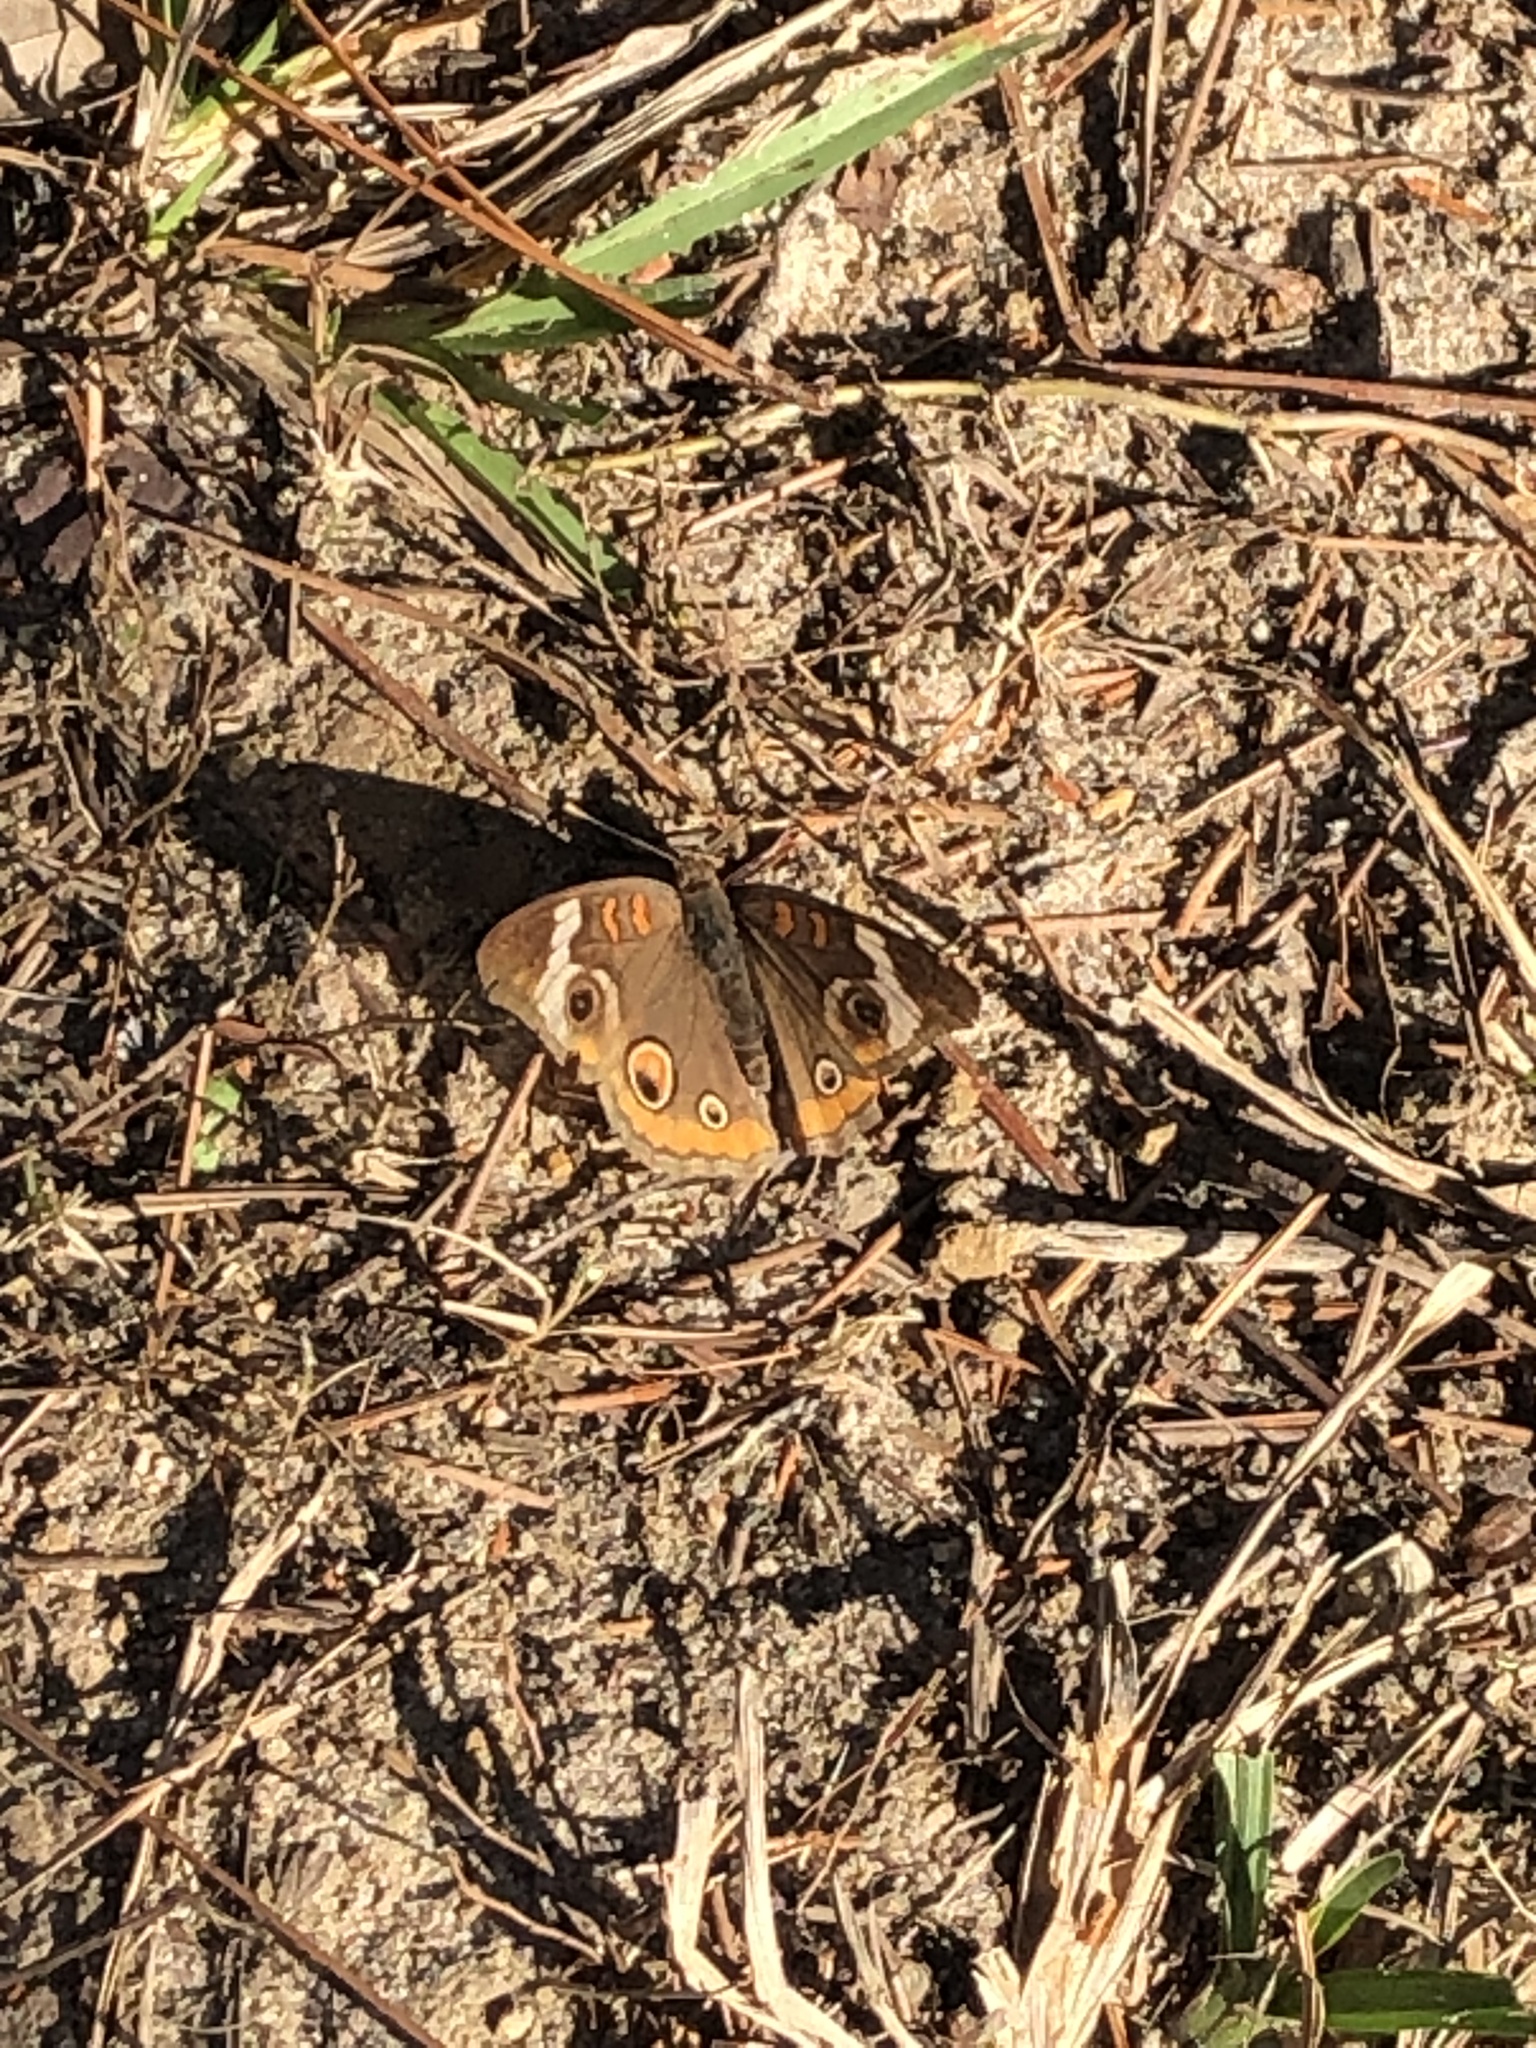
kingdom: Animalia
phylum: Arthropoda
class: Insecta
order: Lepidoptera
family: Nymphalidae
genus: Junonia
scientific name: Junonia coenia
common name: Common buckeye
